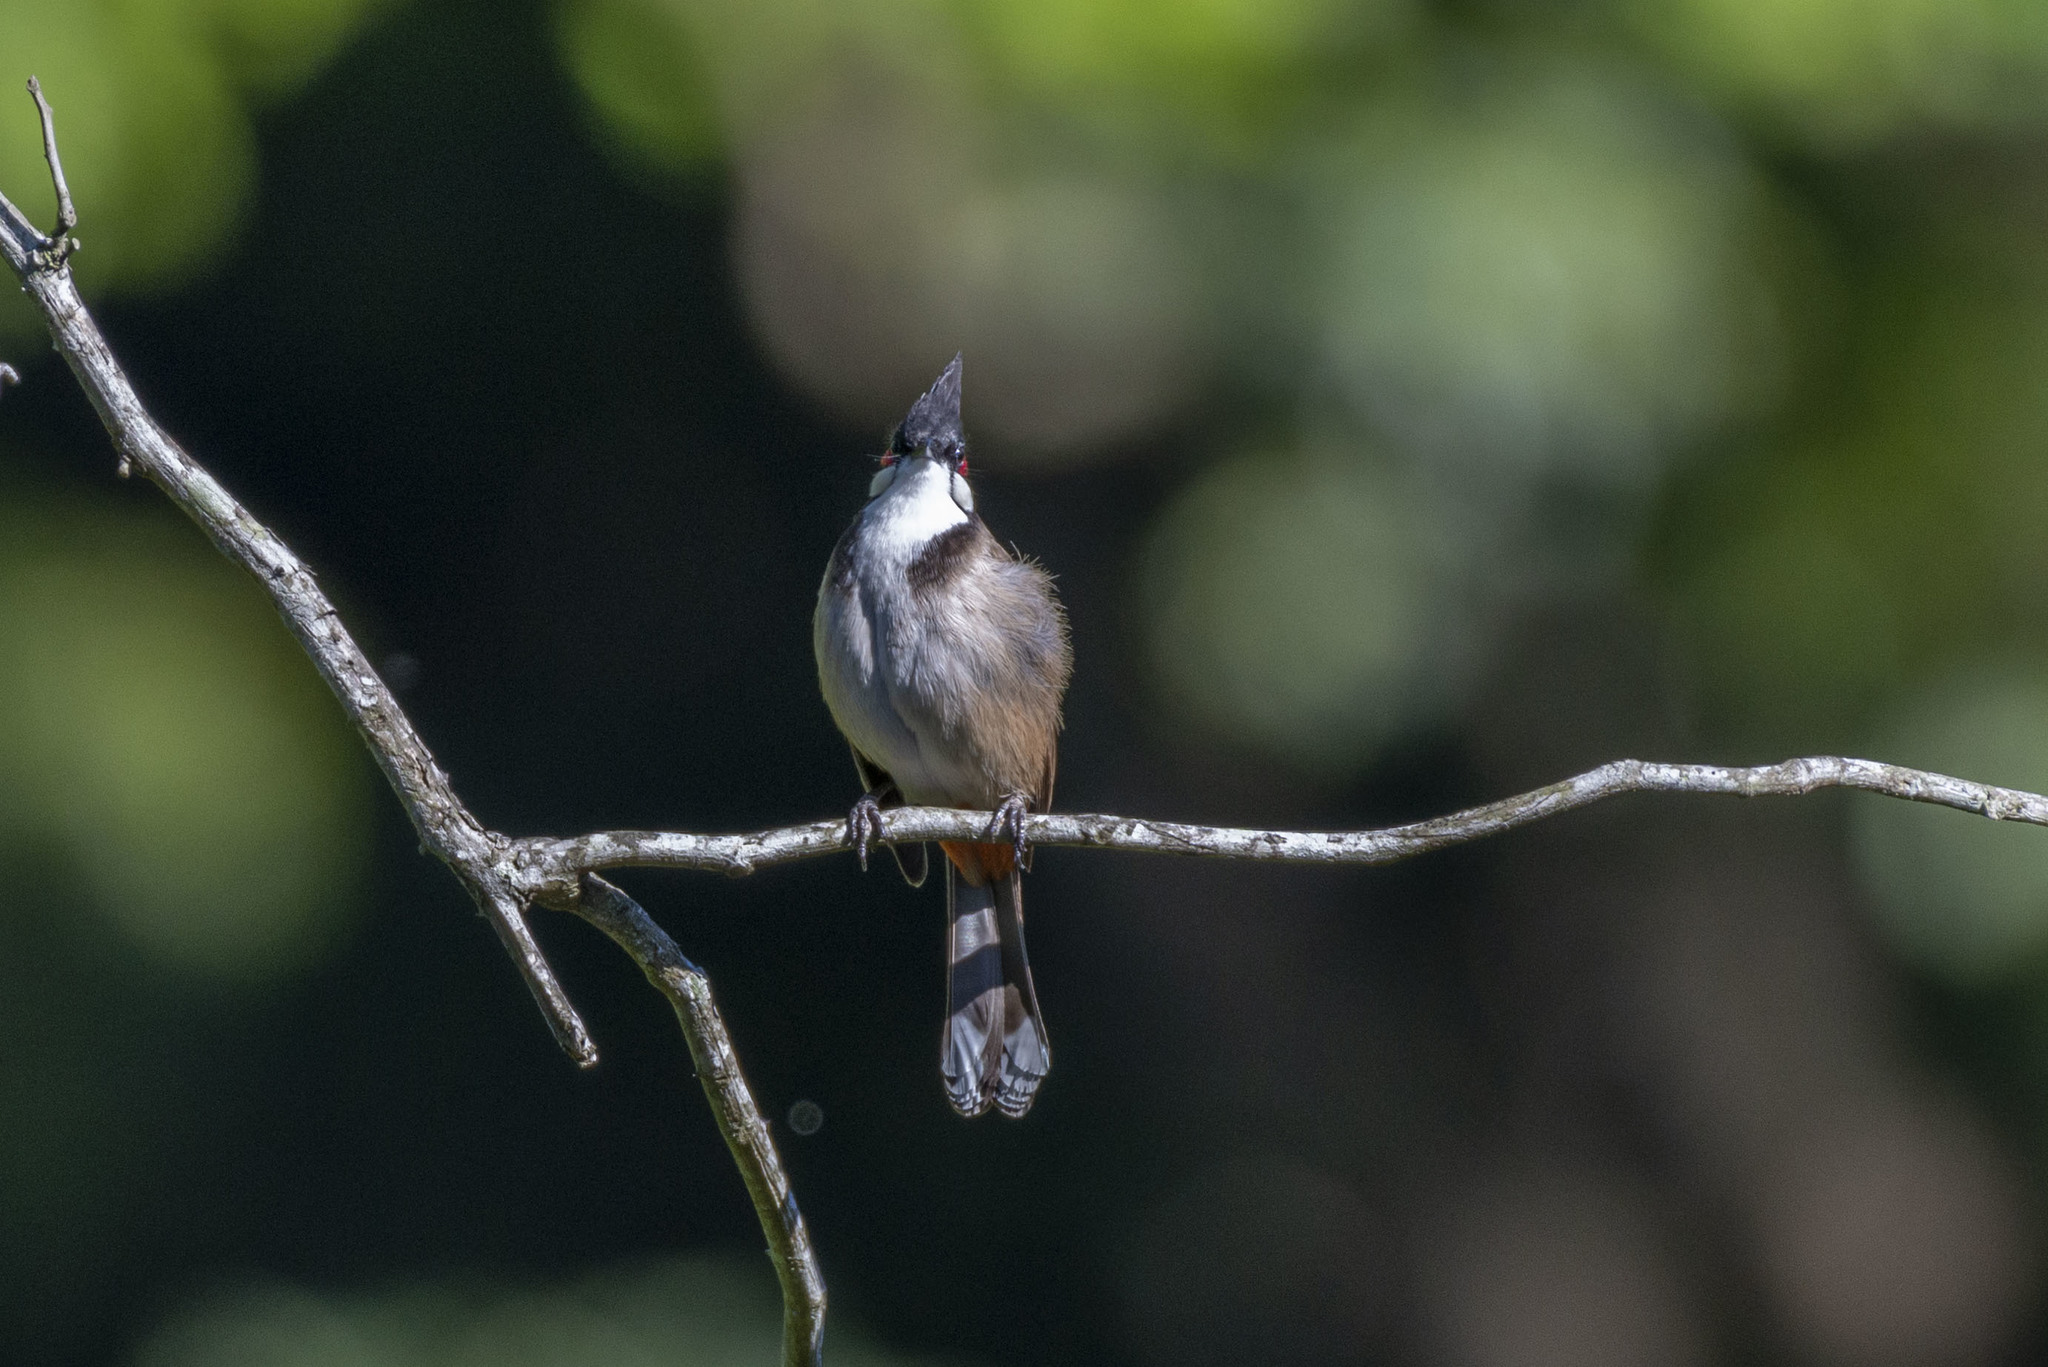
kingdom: Animalia
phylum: Chordata
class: Aves
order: Passeriformes
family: Pycnonotidae
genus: Pycnonotus
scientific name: Pycnonotus jocosus
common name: Red-whiskered bulbul
